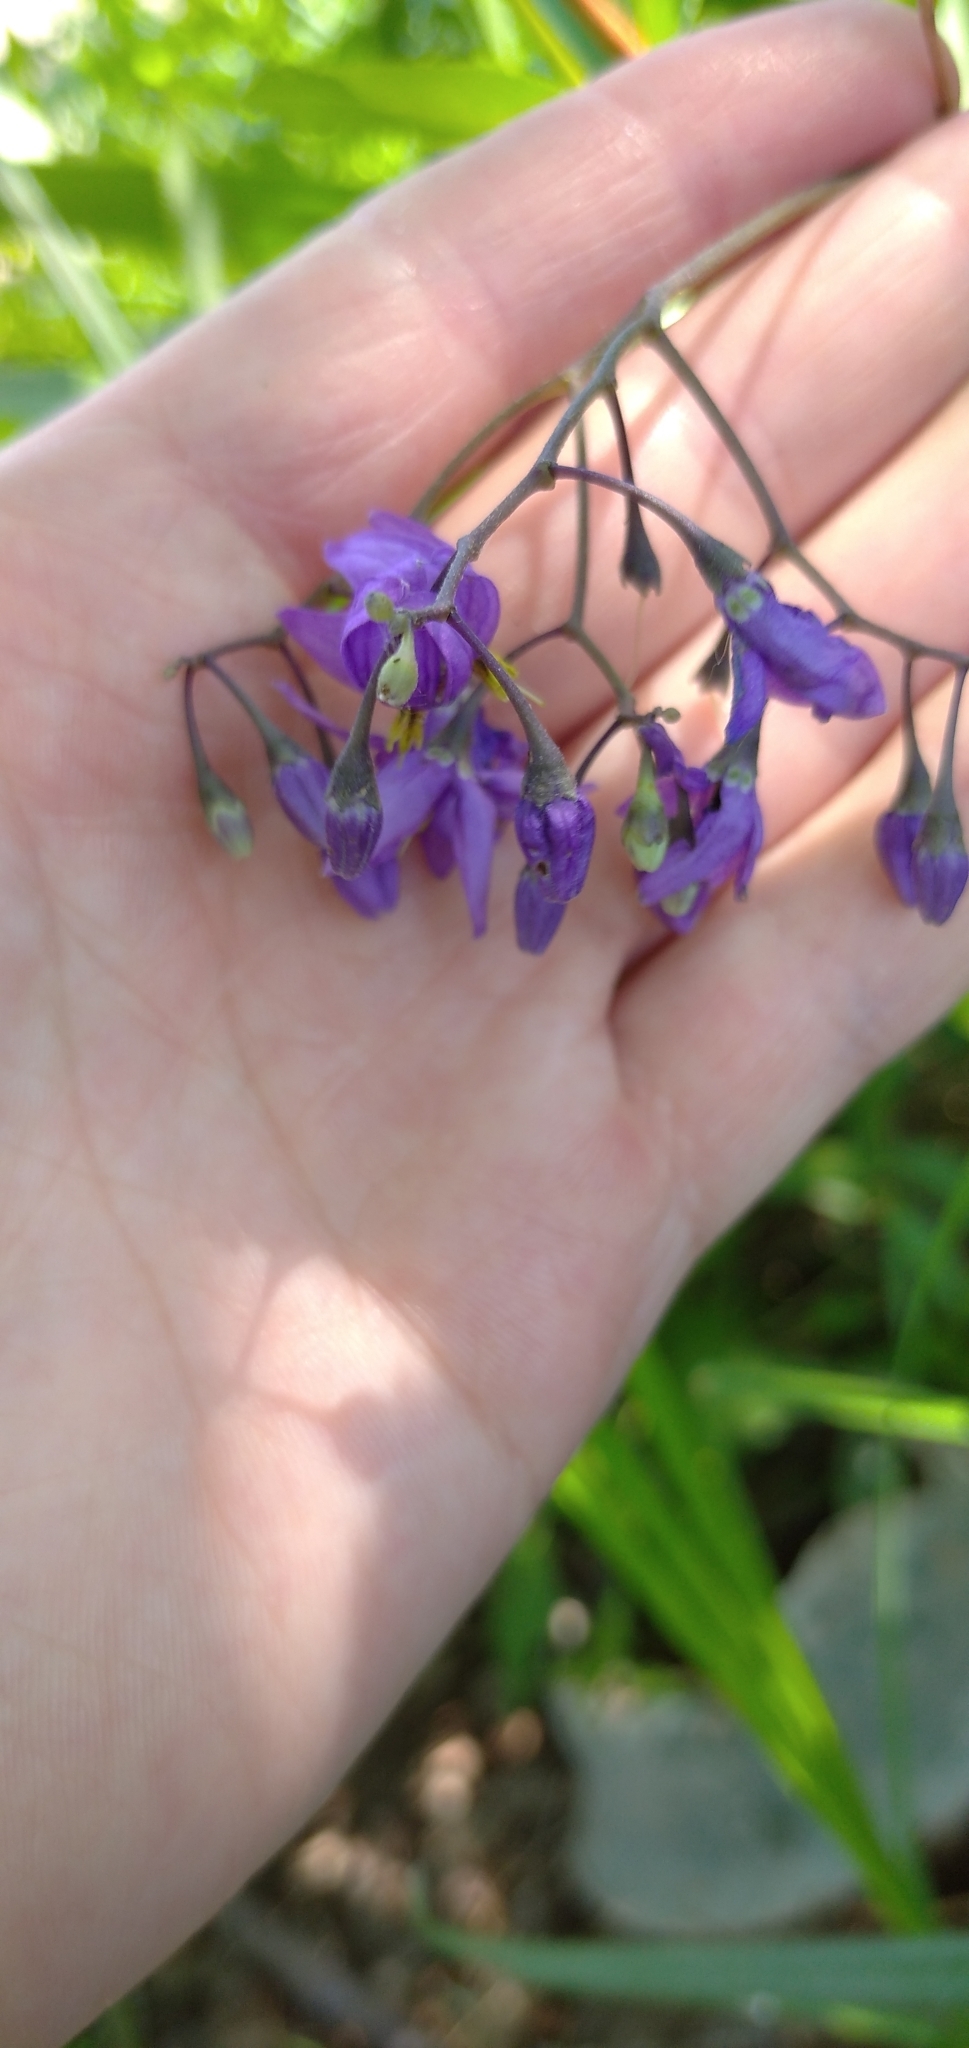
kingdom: Plantae
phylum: Tracheophyta
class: Magnoliopsida
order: Solanales
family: Solanaceae
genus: Solanum
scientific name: Solanum dulcamara
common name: Climbing nightshade
